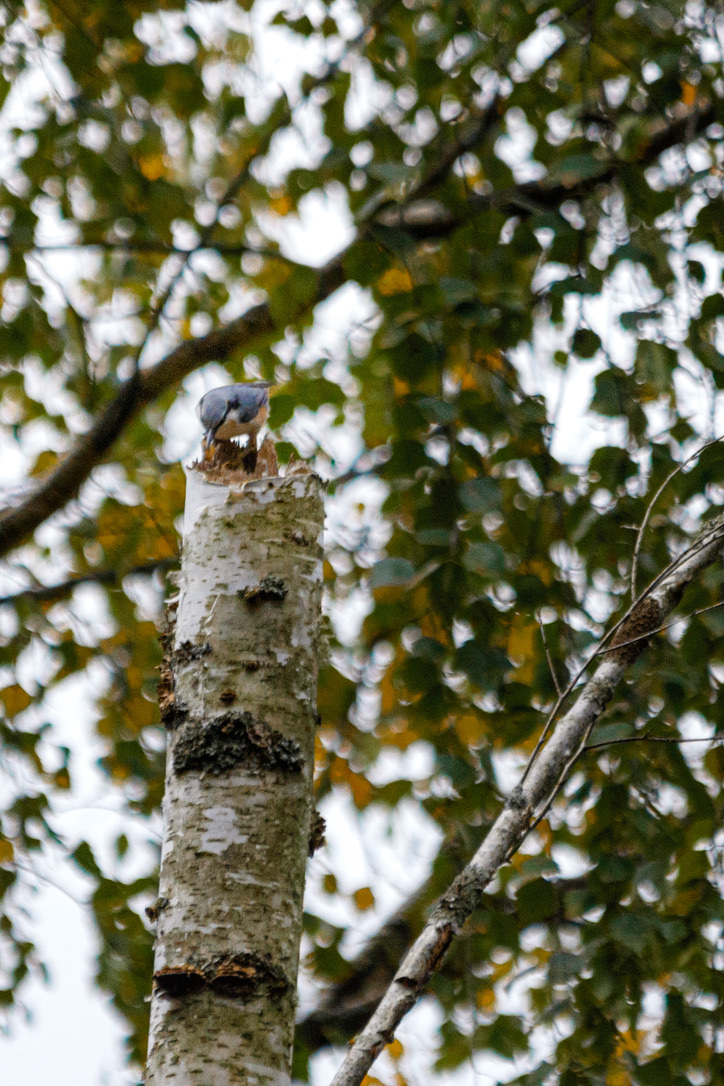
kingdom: Animalia
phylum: Chordata
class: Aves
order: Passeriformes
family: Sittidae
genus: Sitta
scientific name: Sitta europaea
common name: Eurasian nuthatch
